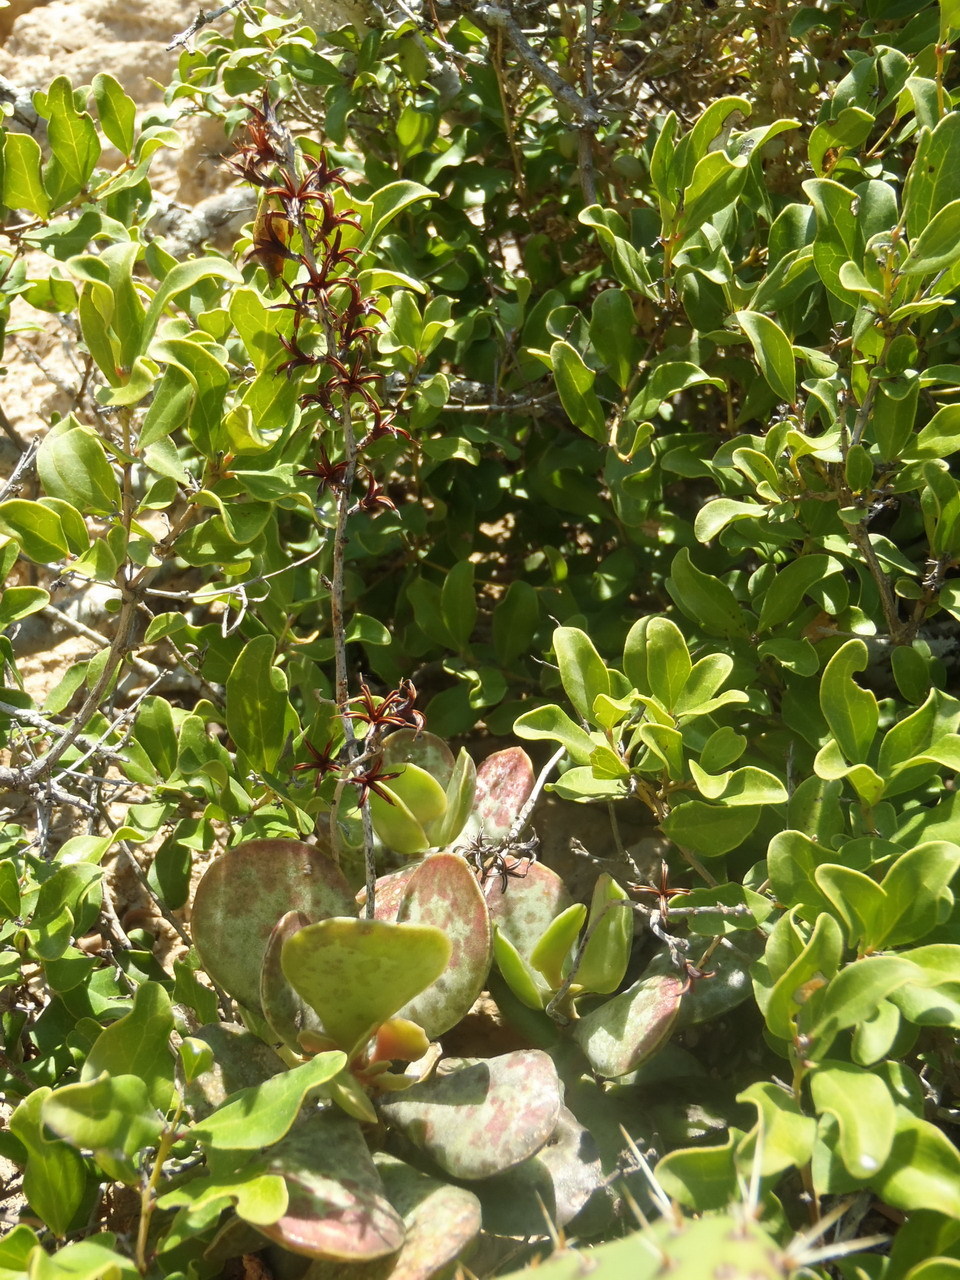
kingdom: Plantae
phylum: Tracheophyta
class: Magnoliopsida
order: Saxifragales
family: Crassulaceae
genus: Adromischus
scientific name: Adromischus maculatus
